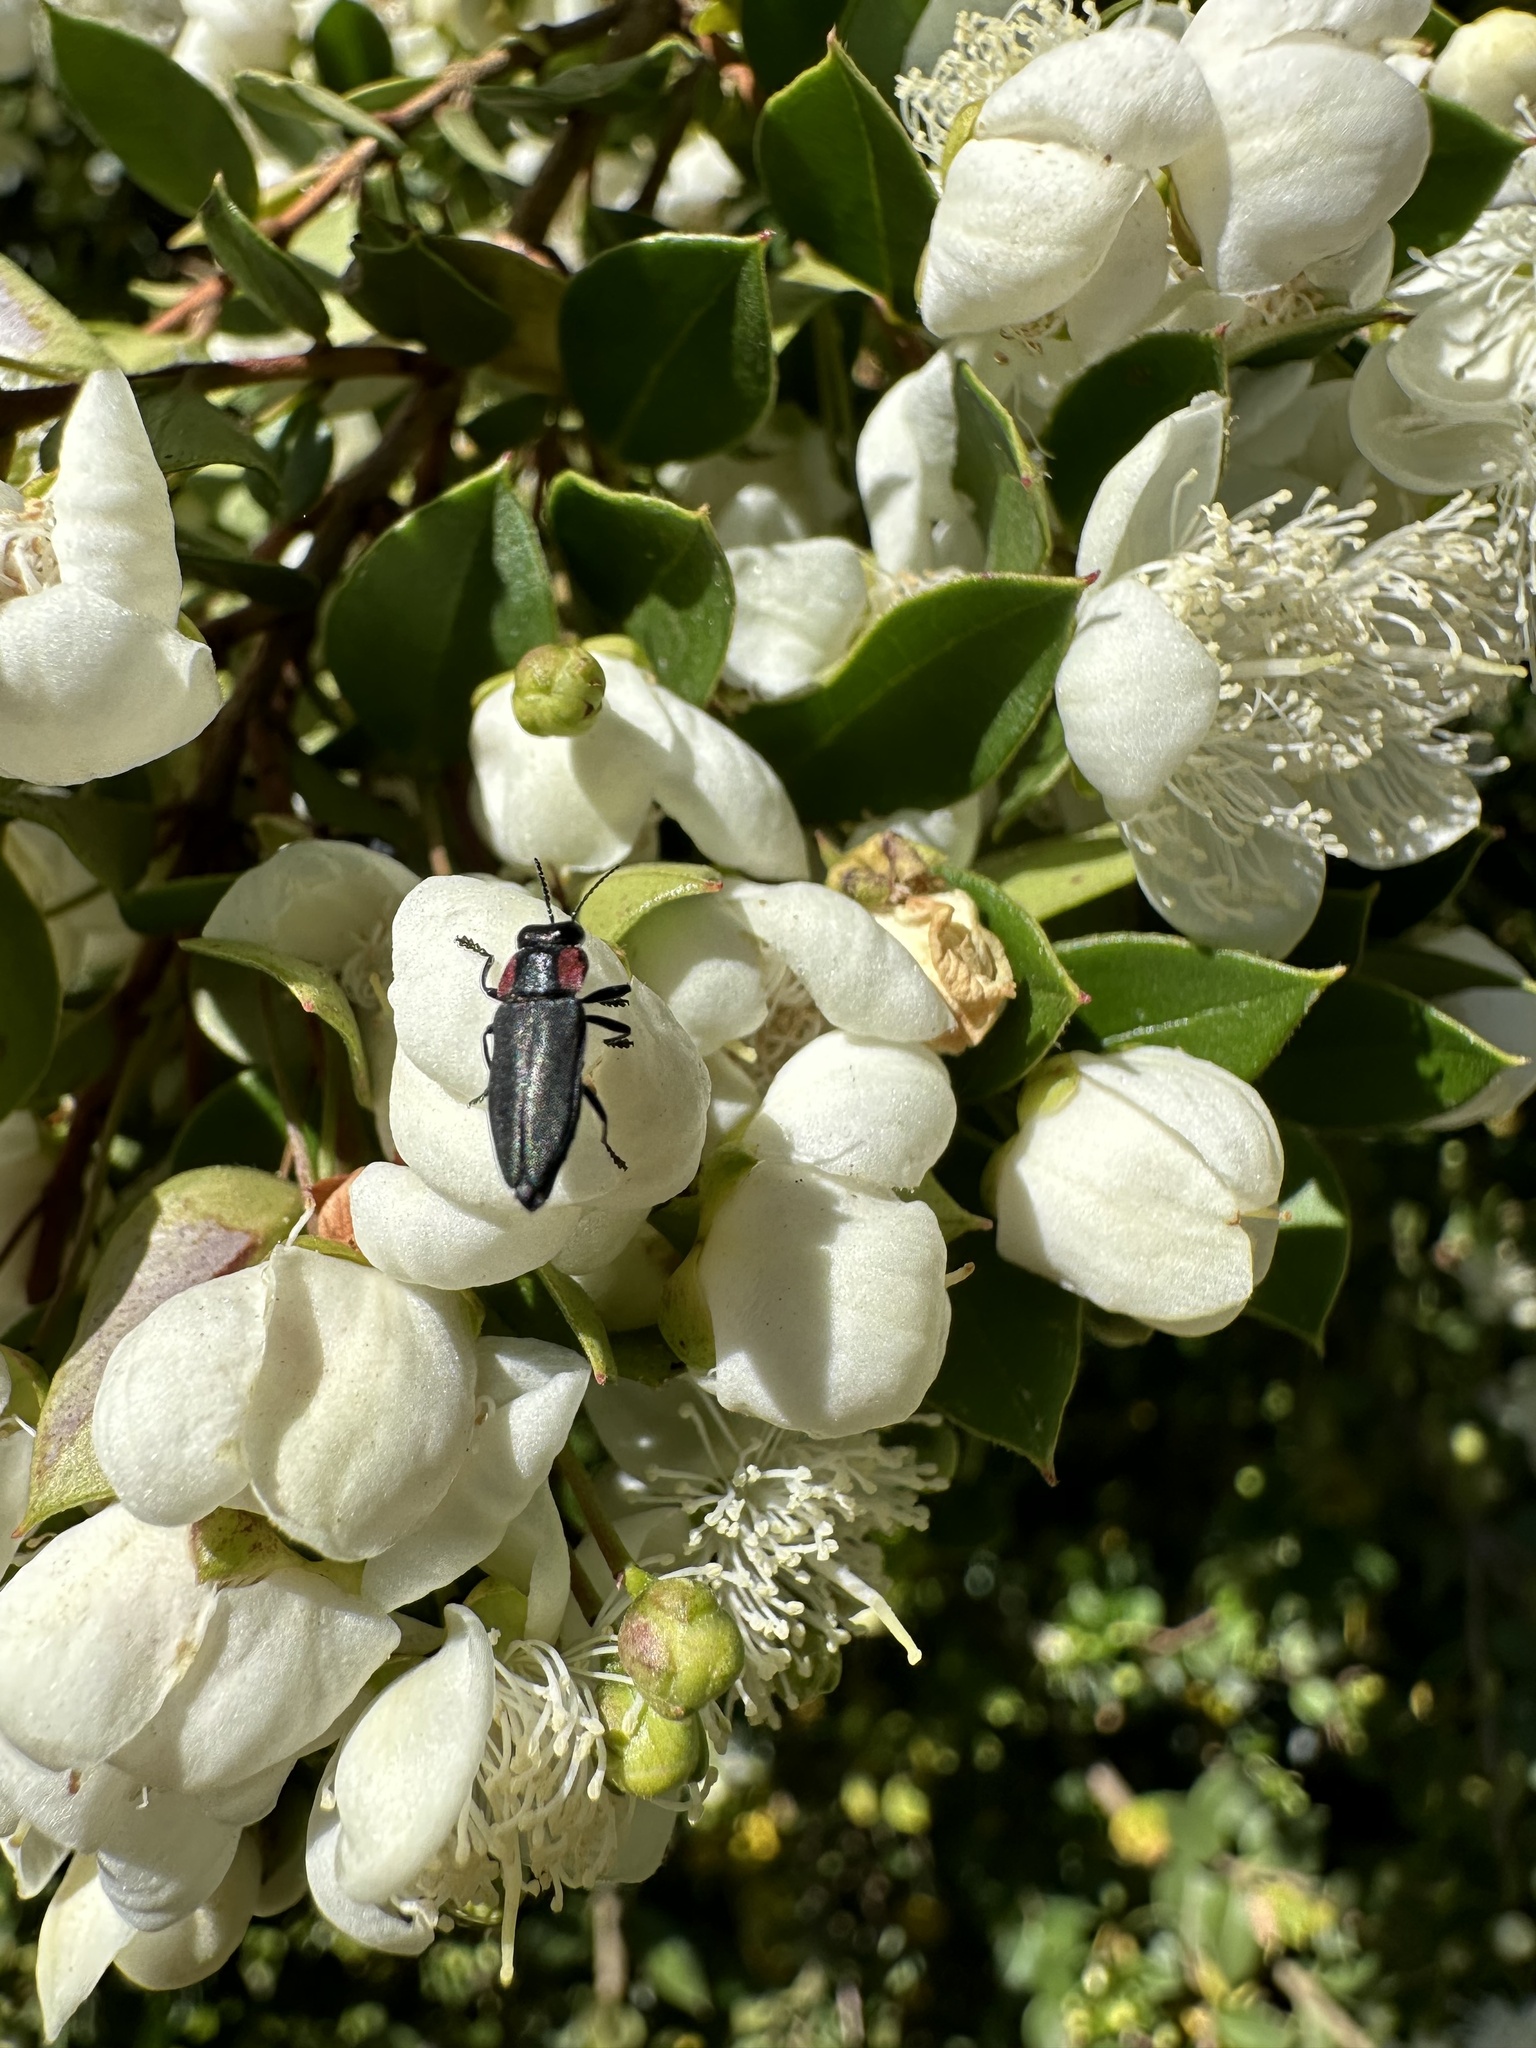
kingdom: Animalia
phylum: Arthropoda
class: Insecta
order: Coleoptera
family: Buprestidae
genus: Romanophora
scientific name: Romanophora verecunda
